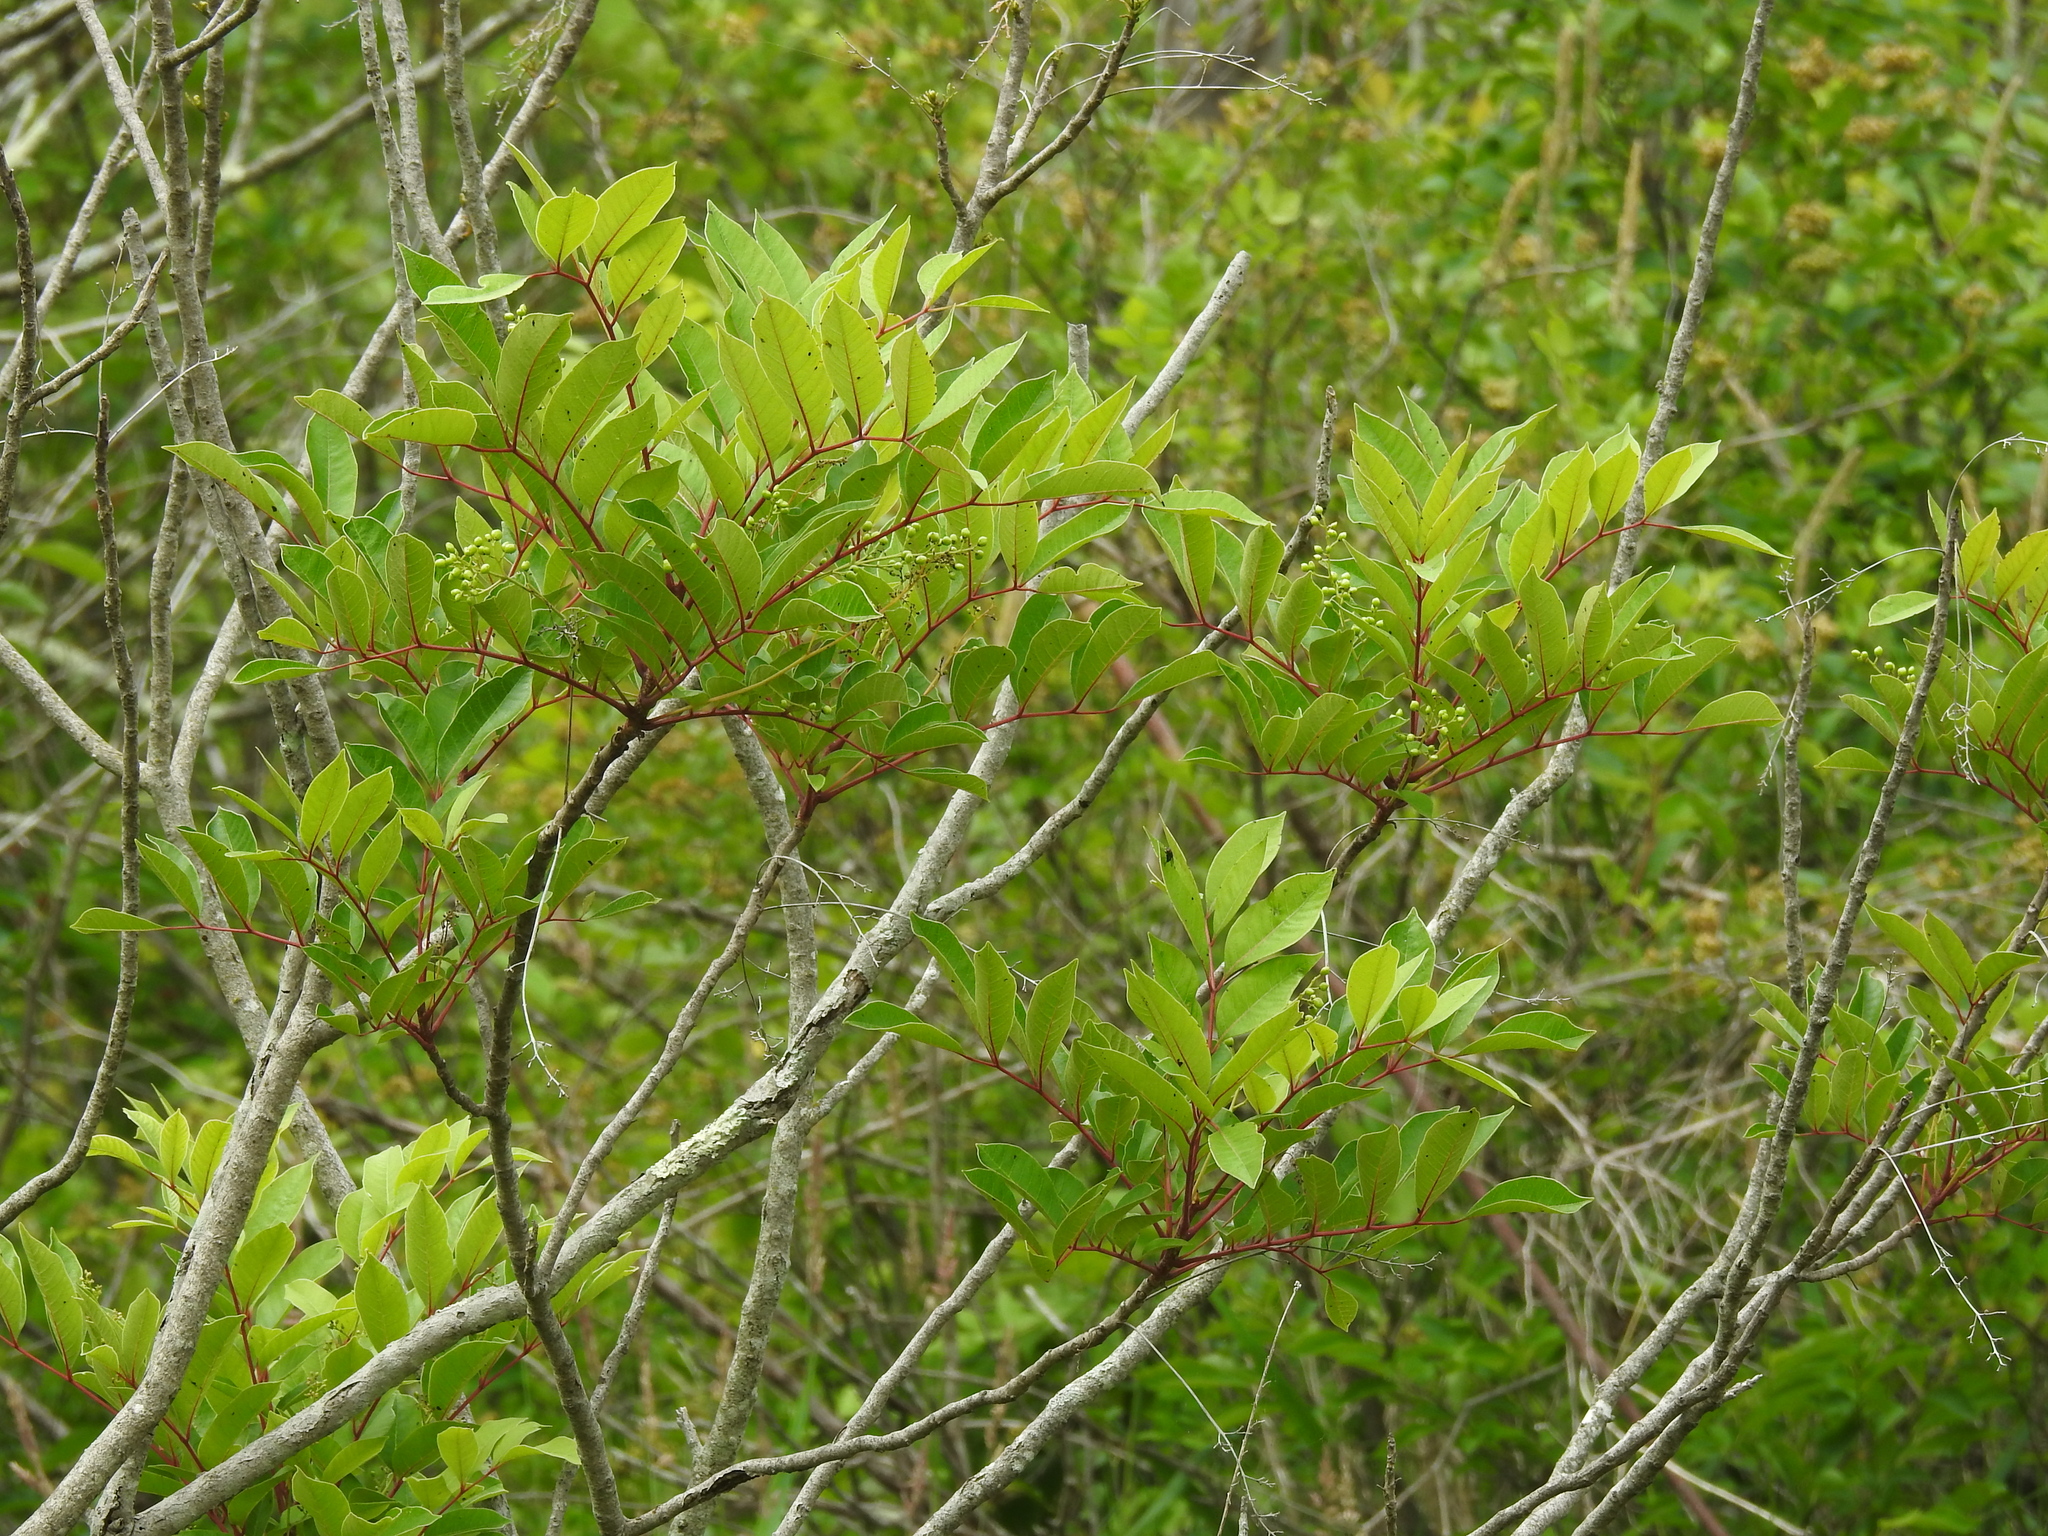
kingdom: Plantae
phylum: Tracheophyta
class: Magnoliopsida
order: Sapindales
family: Anacardiaceae
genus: Toxicodendron
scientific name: Toxicodendron vernix
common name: Poison sumac
